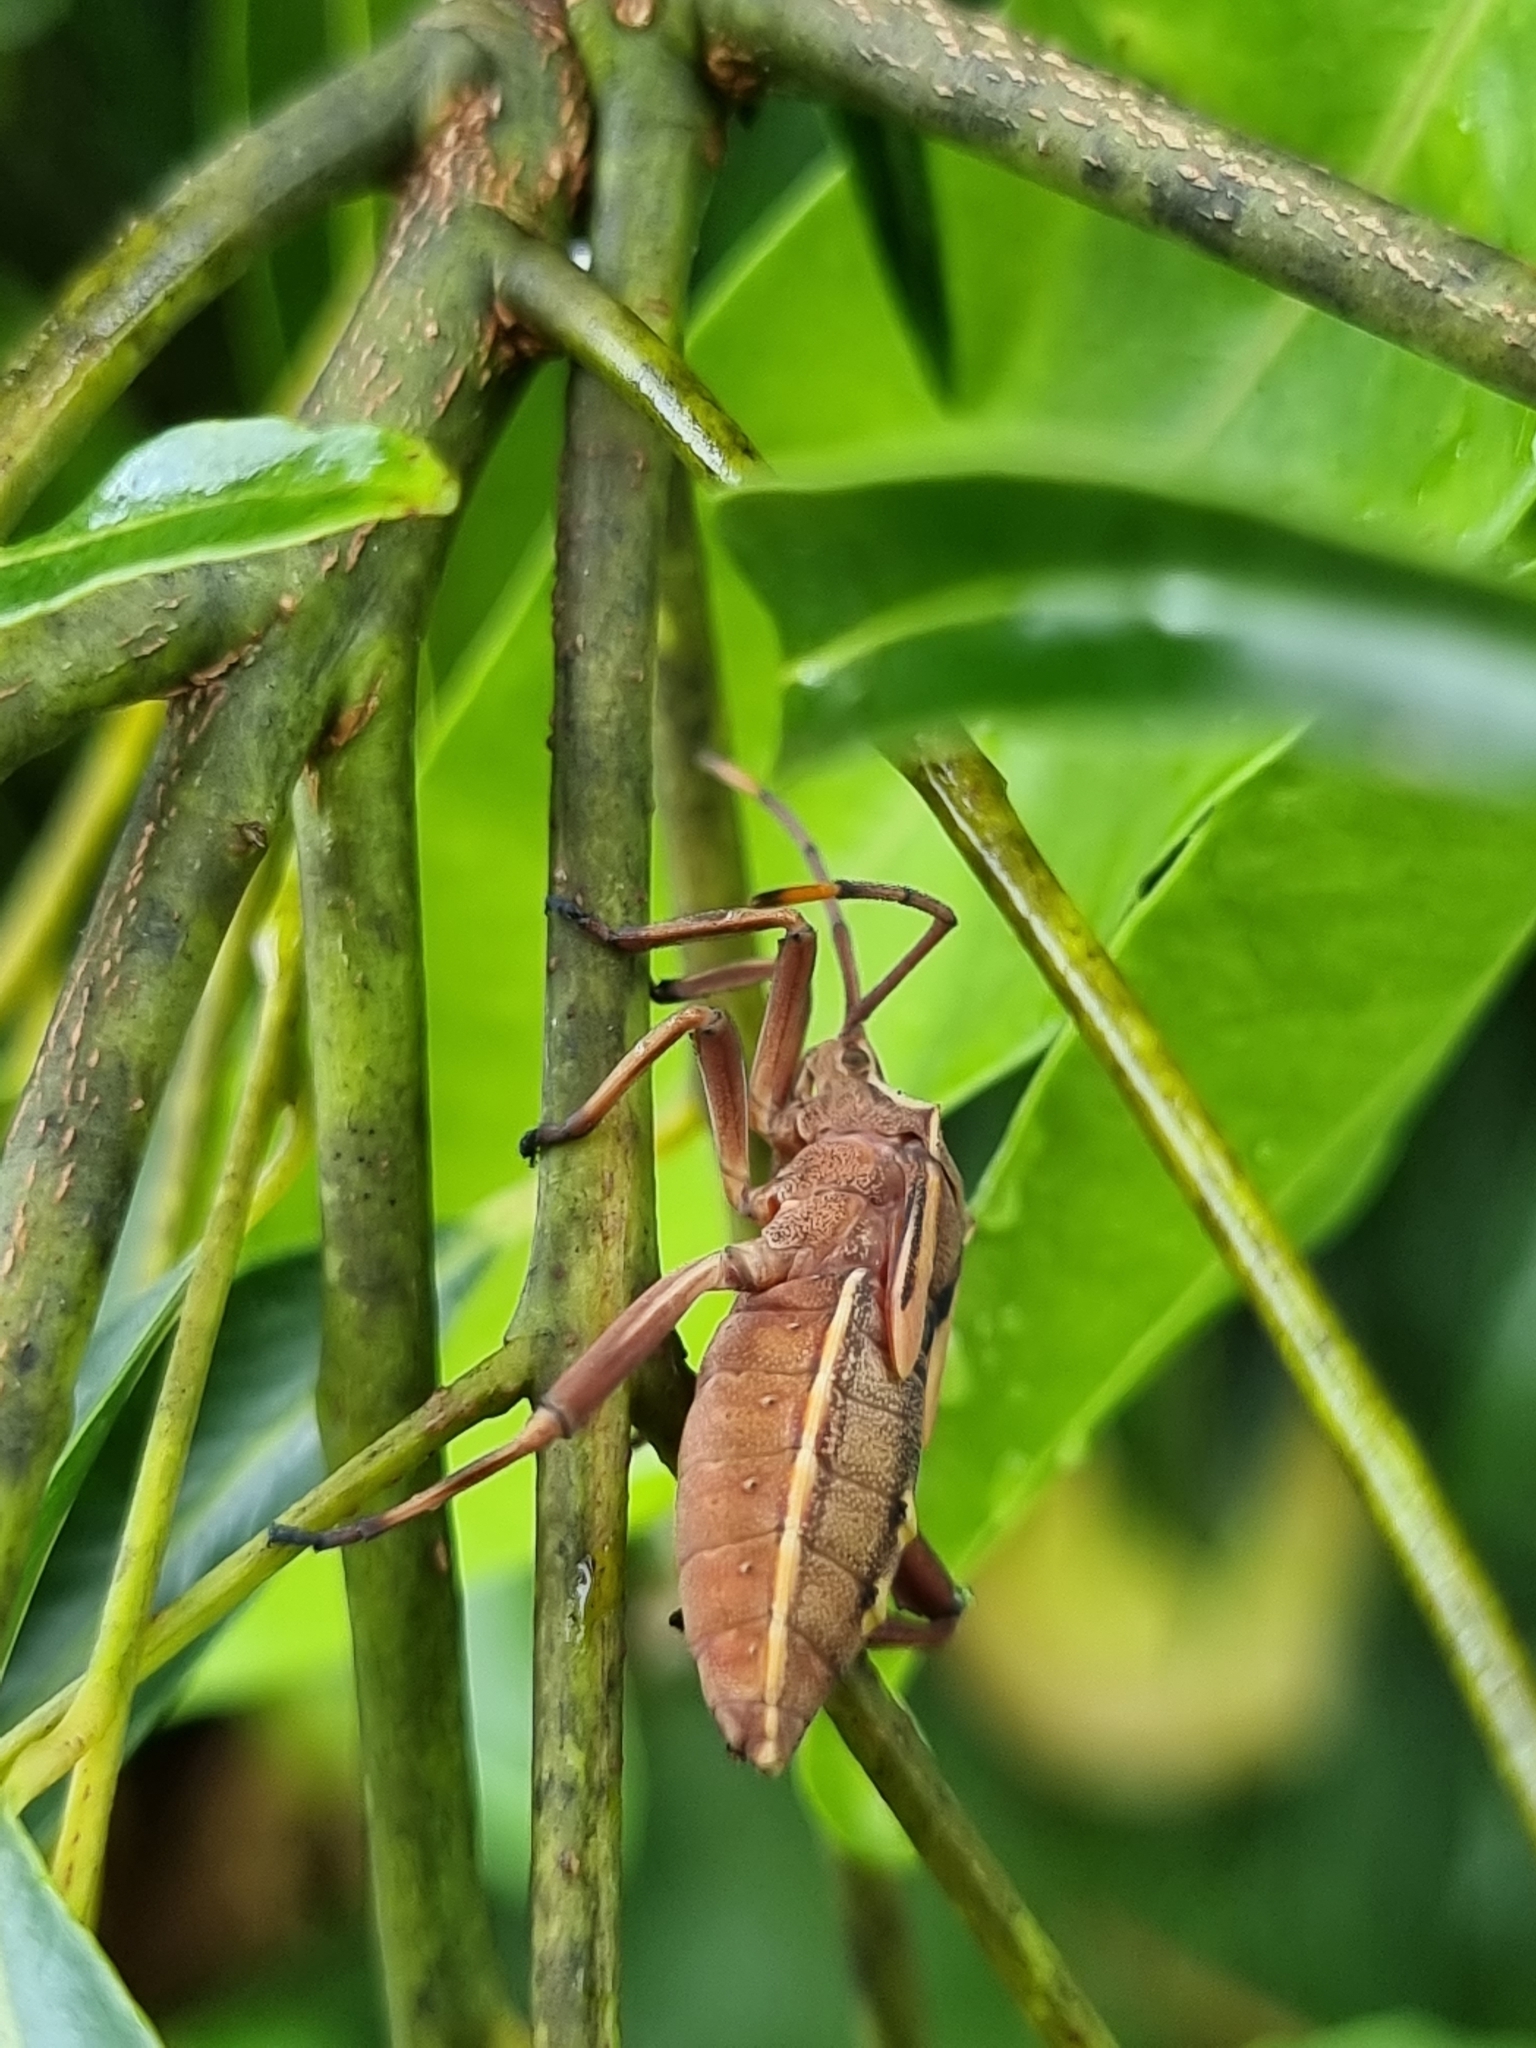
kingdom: Animalia
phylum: Arthropoda
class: Insecta
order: Hemiptera
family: Coreidae
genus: Mictis
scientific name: Mictis profana
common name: Crusader bug
